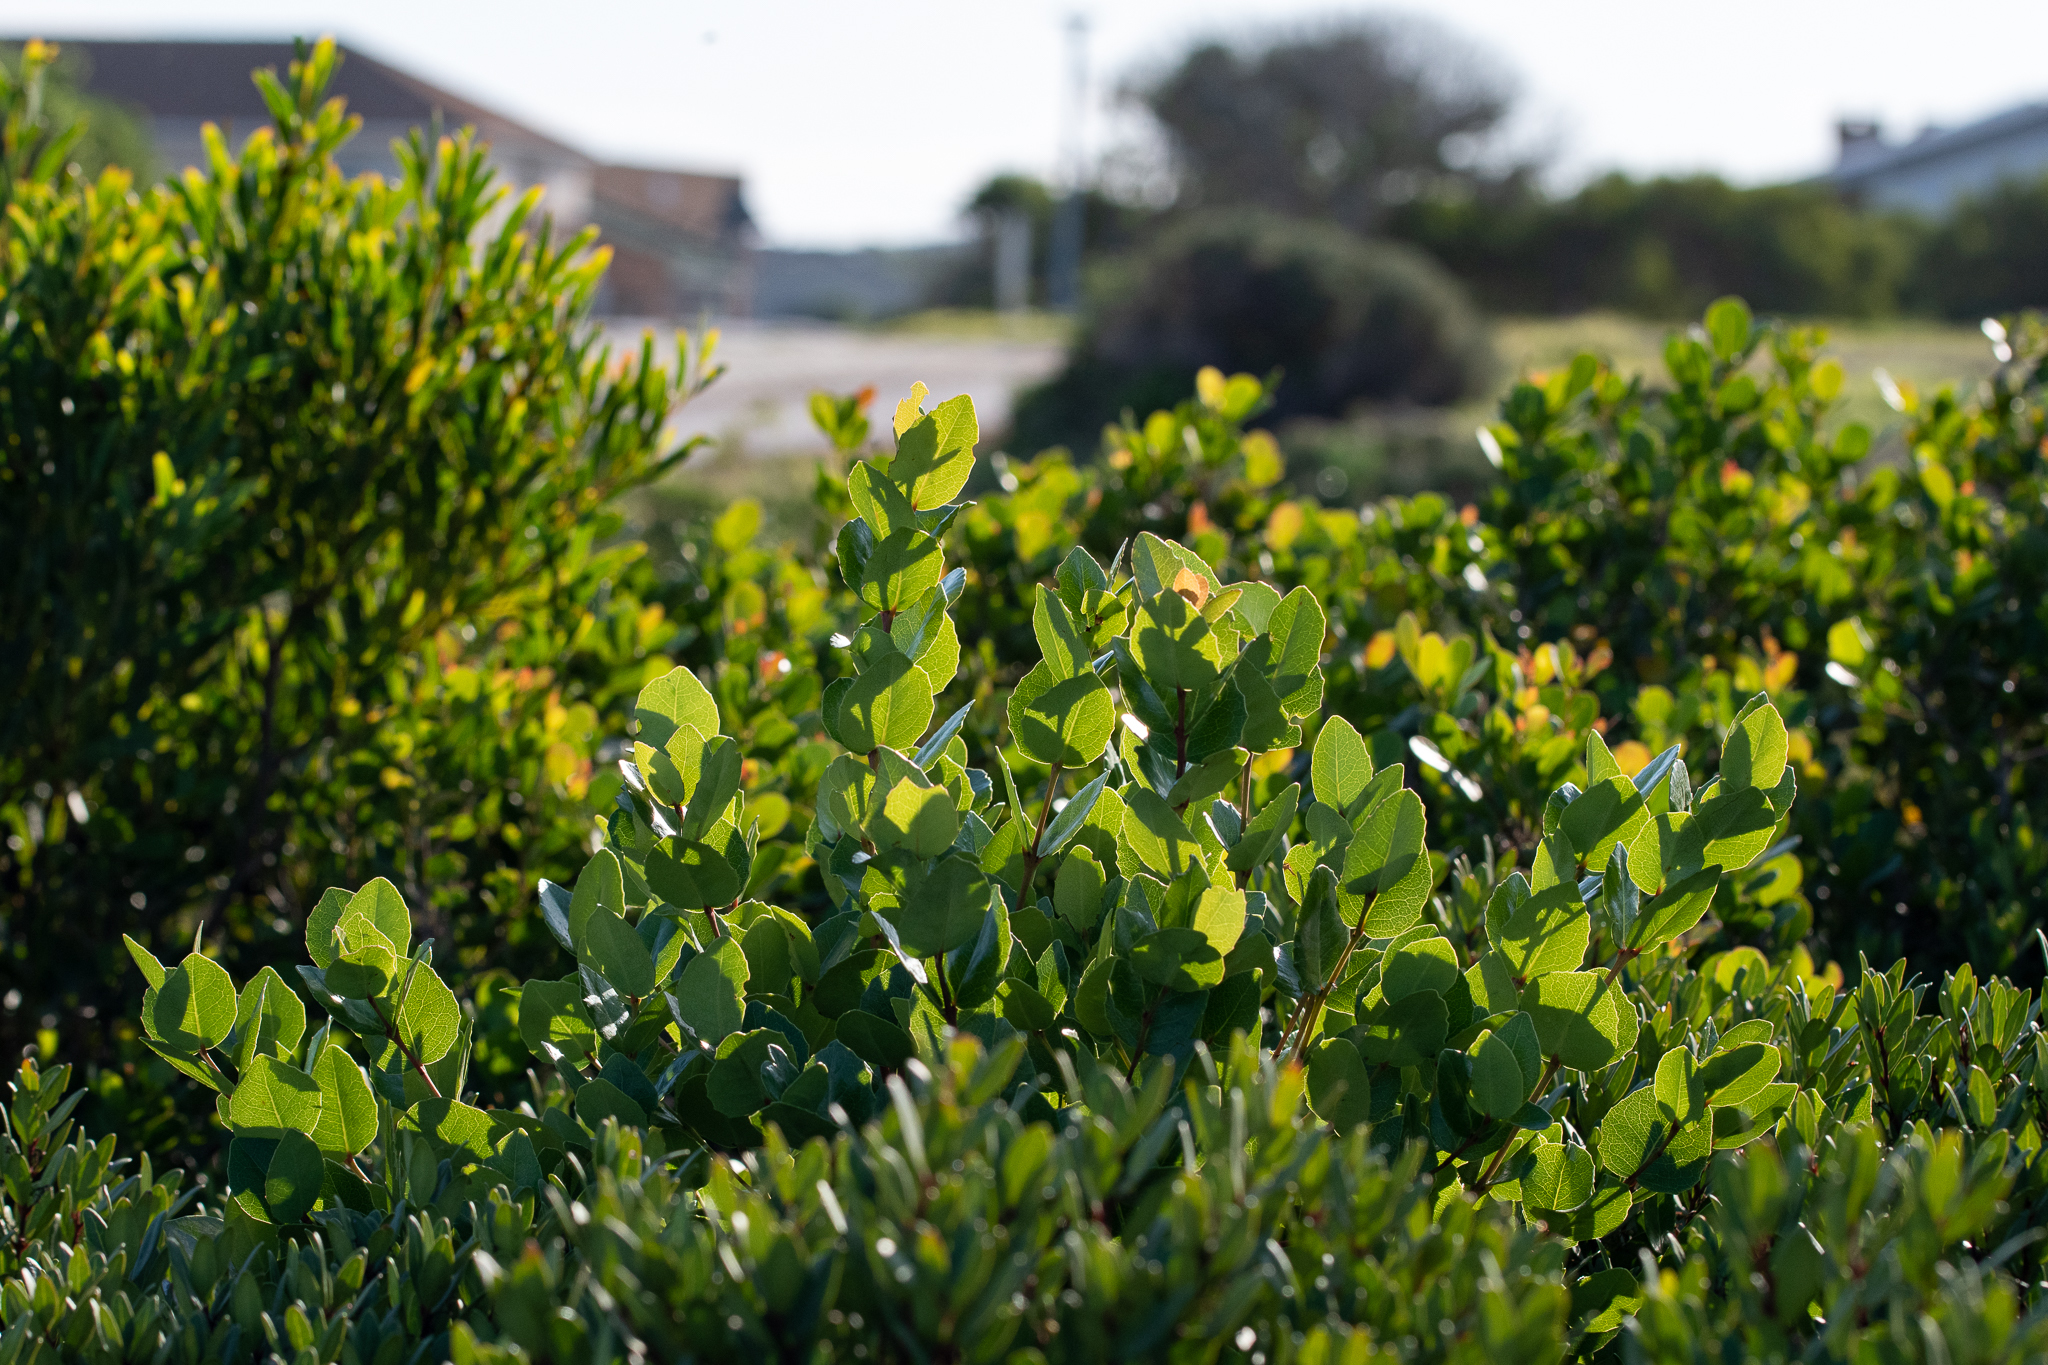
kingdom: Plantae
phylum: Tracheophyta
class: Magnoliopsida
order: Celastrales
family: Celastraceae
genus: Cassine
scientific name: Cassine peragua
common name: Cape saffron
